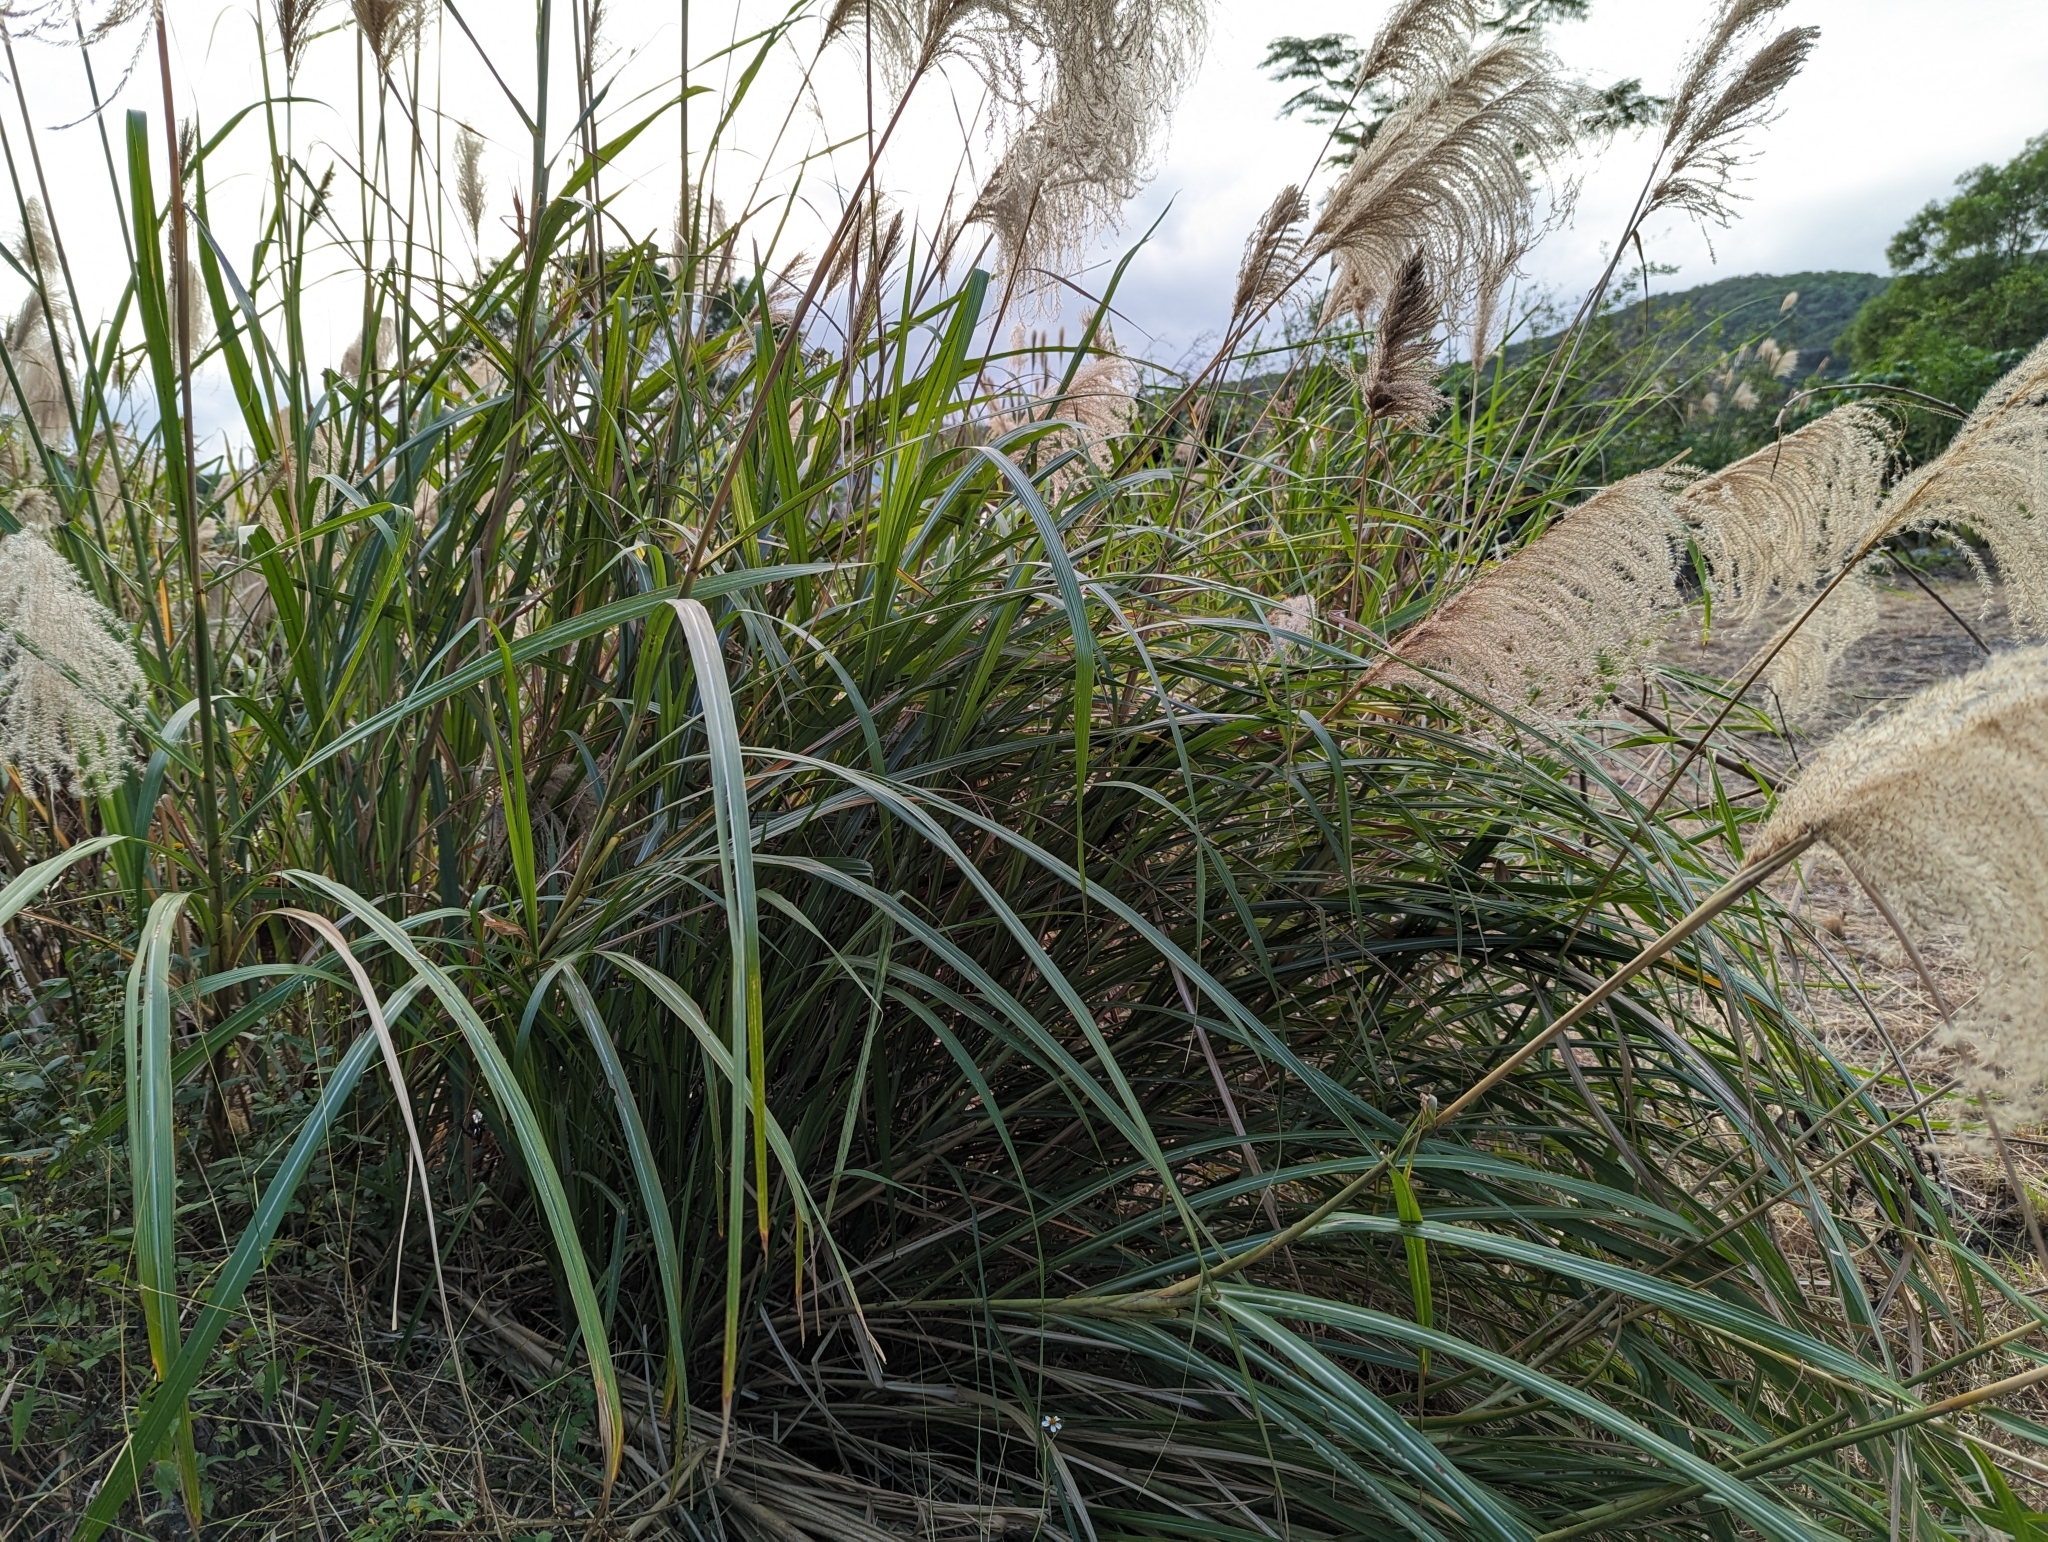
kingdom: Plantae
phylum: Tracheophyta
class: Liliopsida
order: Poales
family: Poaceae
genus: Miscanthus
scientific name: Miscanthus sinensis
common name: Chinese silvergrass
